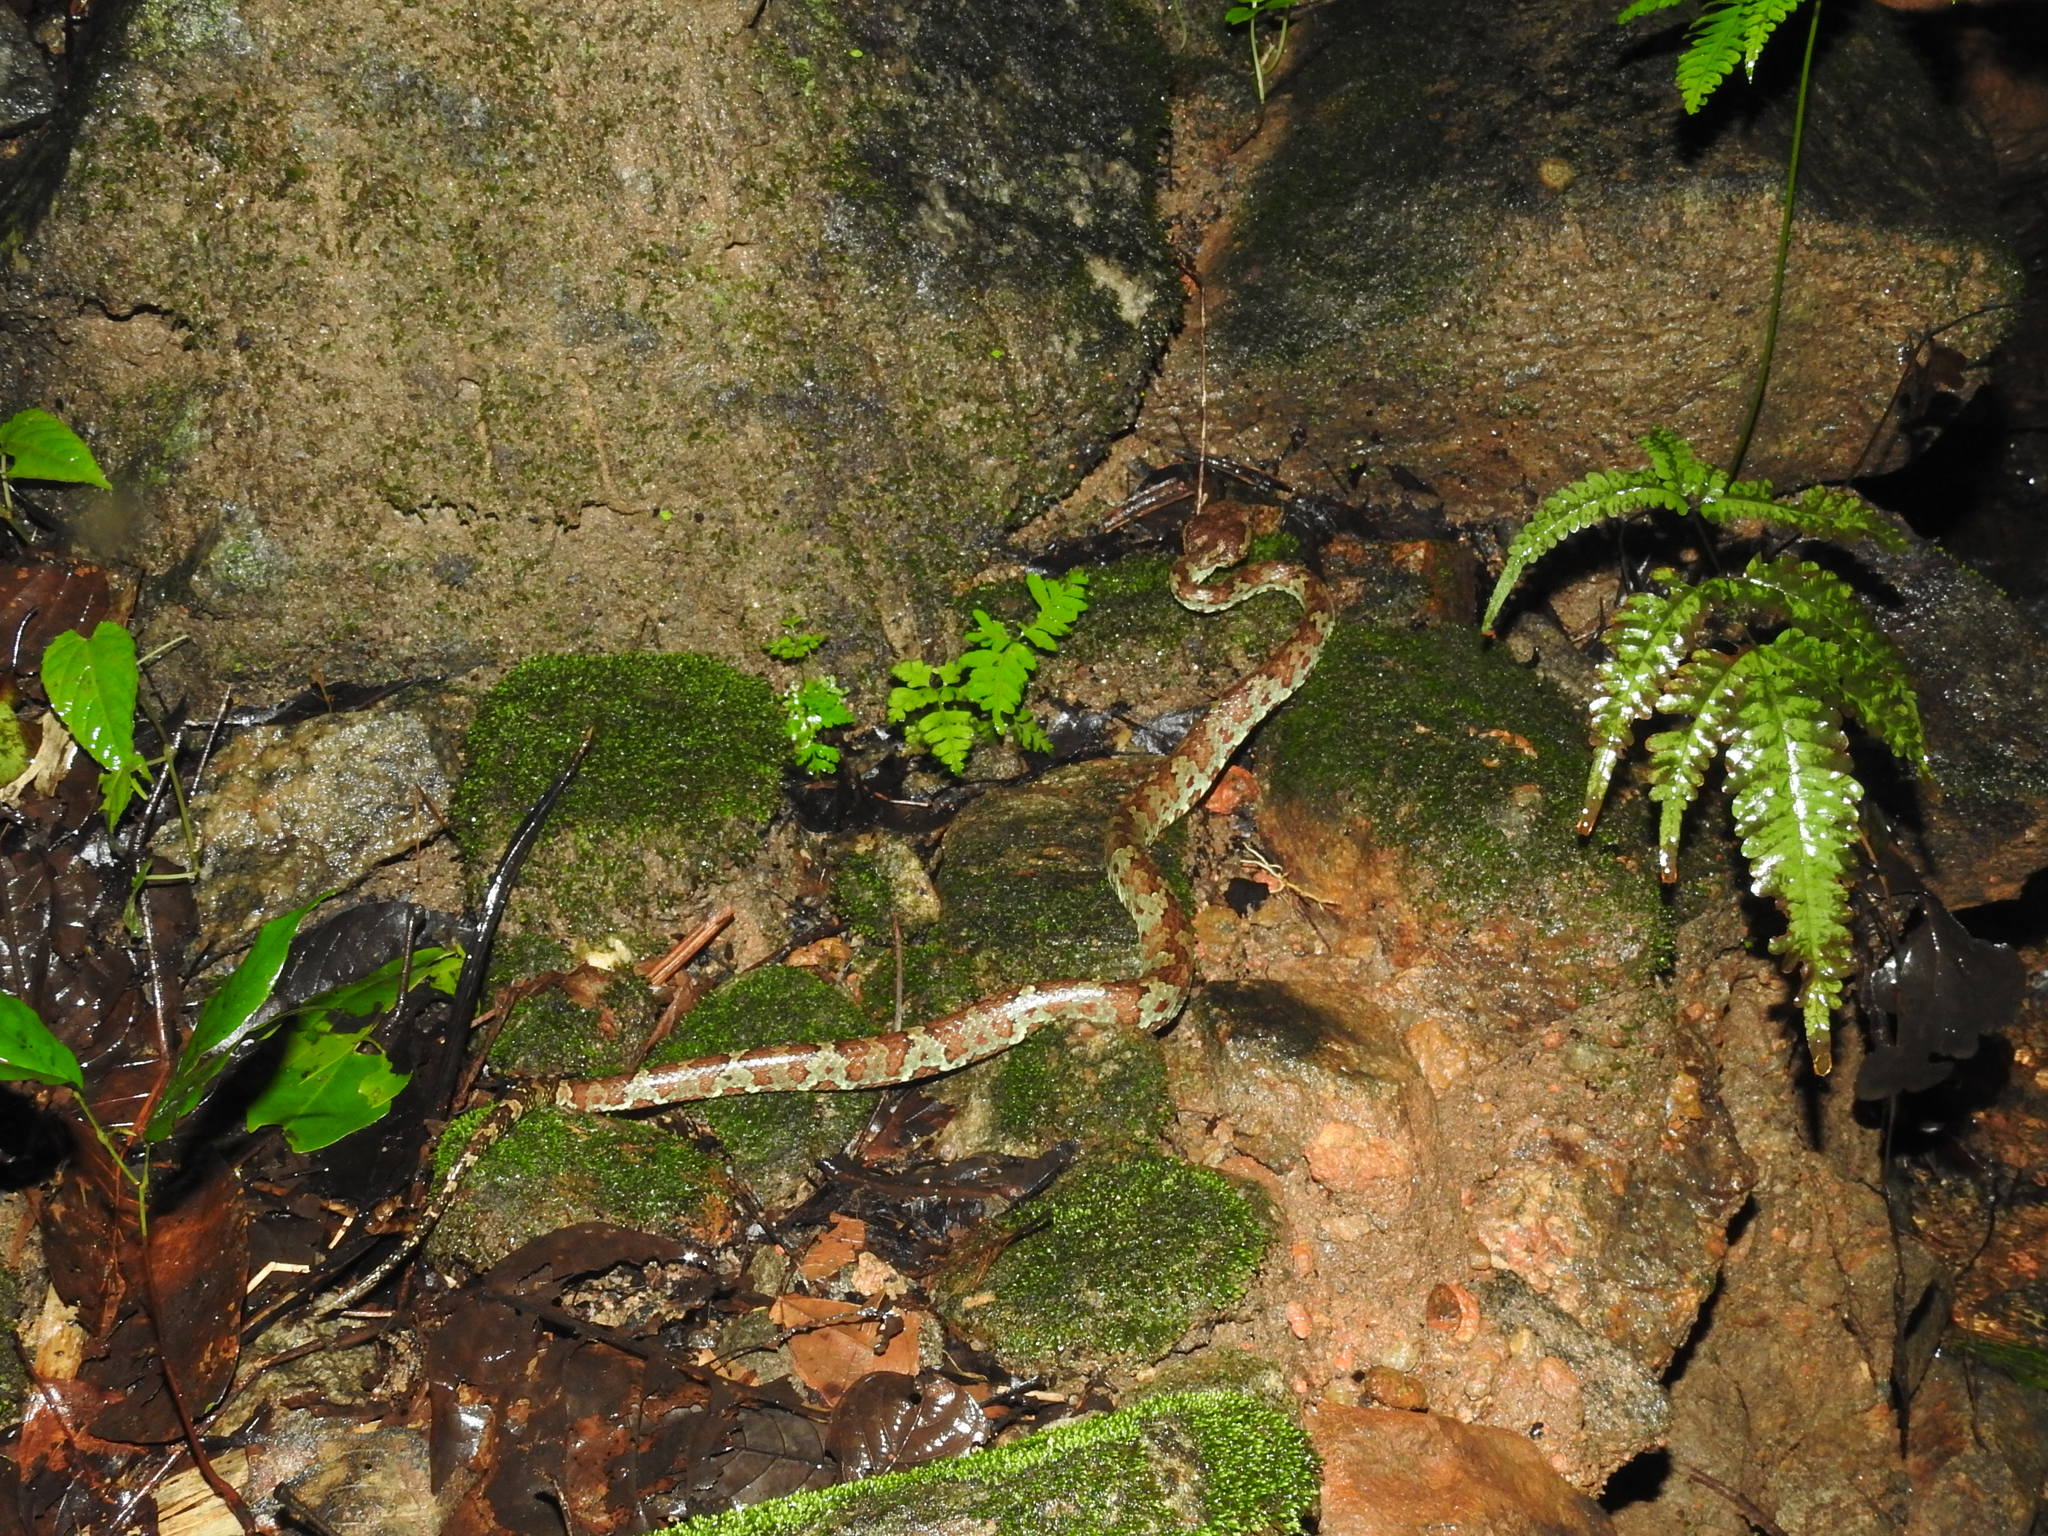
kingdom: Animalia
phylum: Chordata
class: Squamata
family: Viperidae
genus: Craspedocephalus
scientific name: Craspedocephalus malabaricus
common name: Malabarian pit viper
